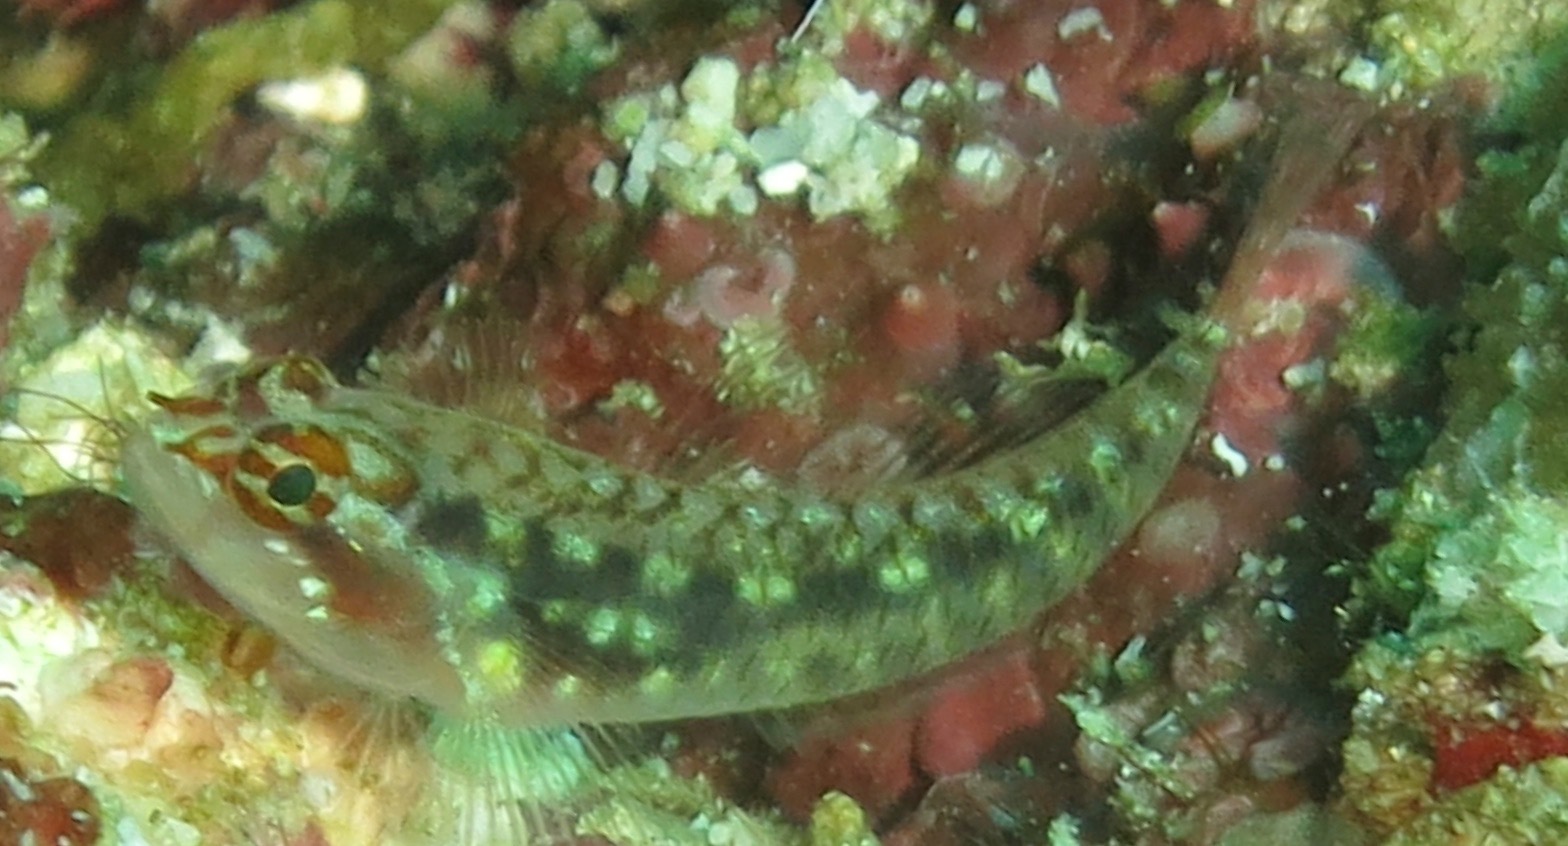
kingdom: Animalia
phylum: Chordata
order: Perciformes
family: Gobiidae
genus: Eviota
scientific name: Eviota longirostris
